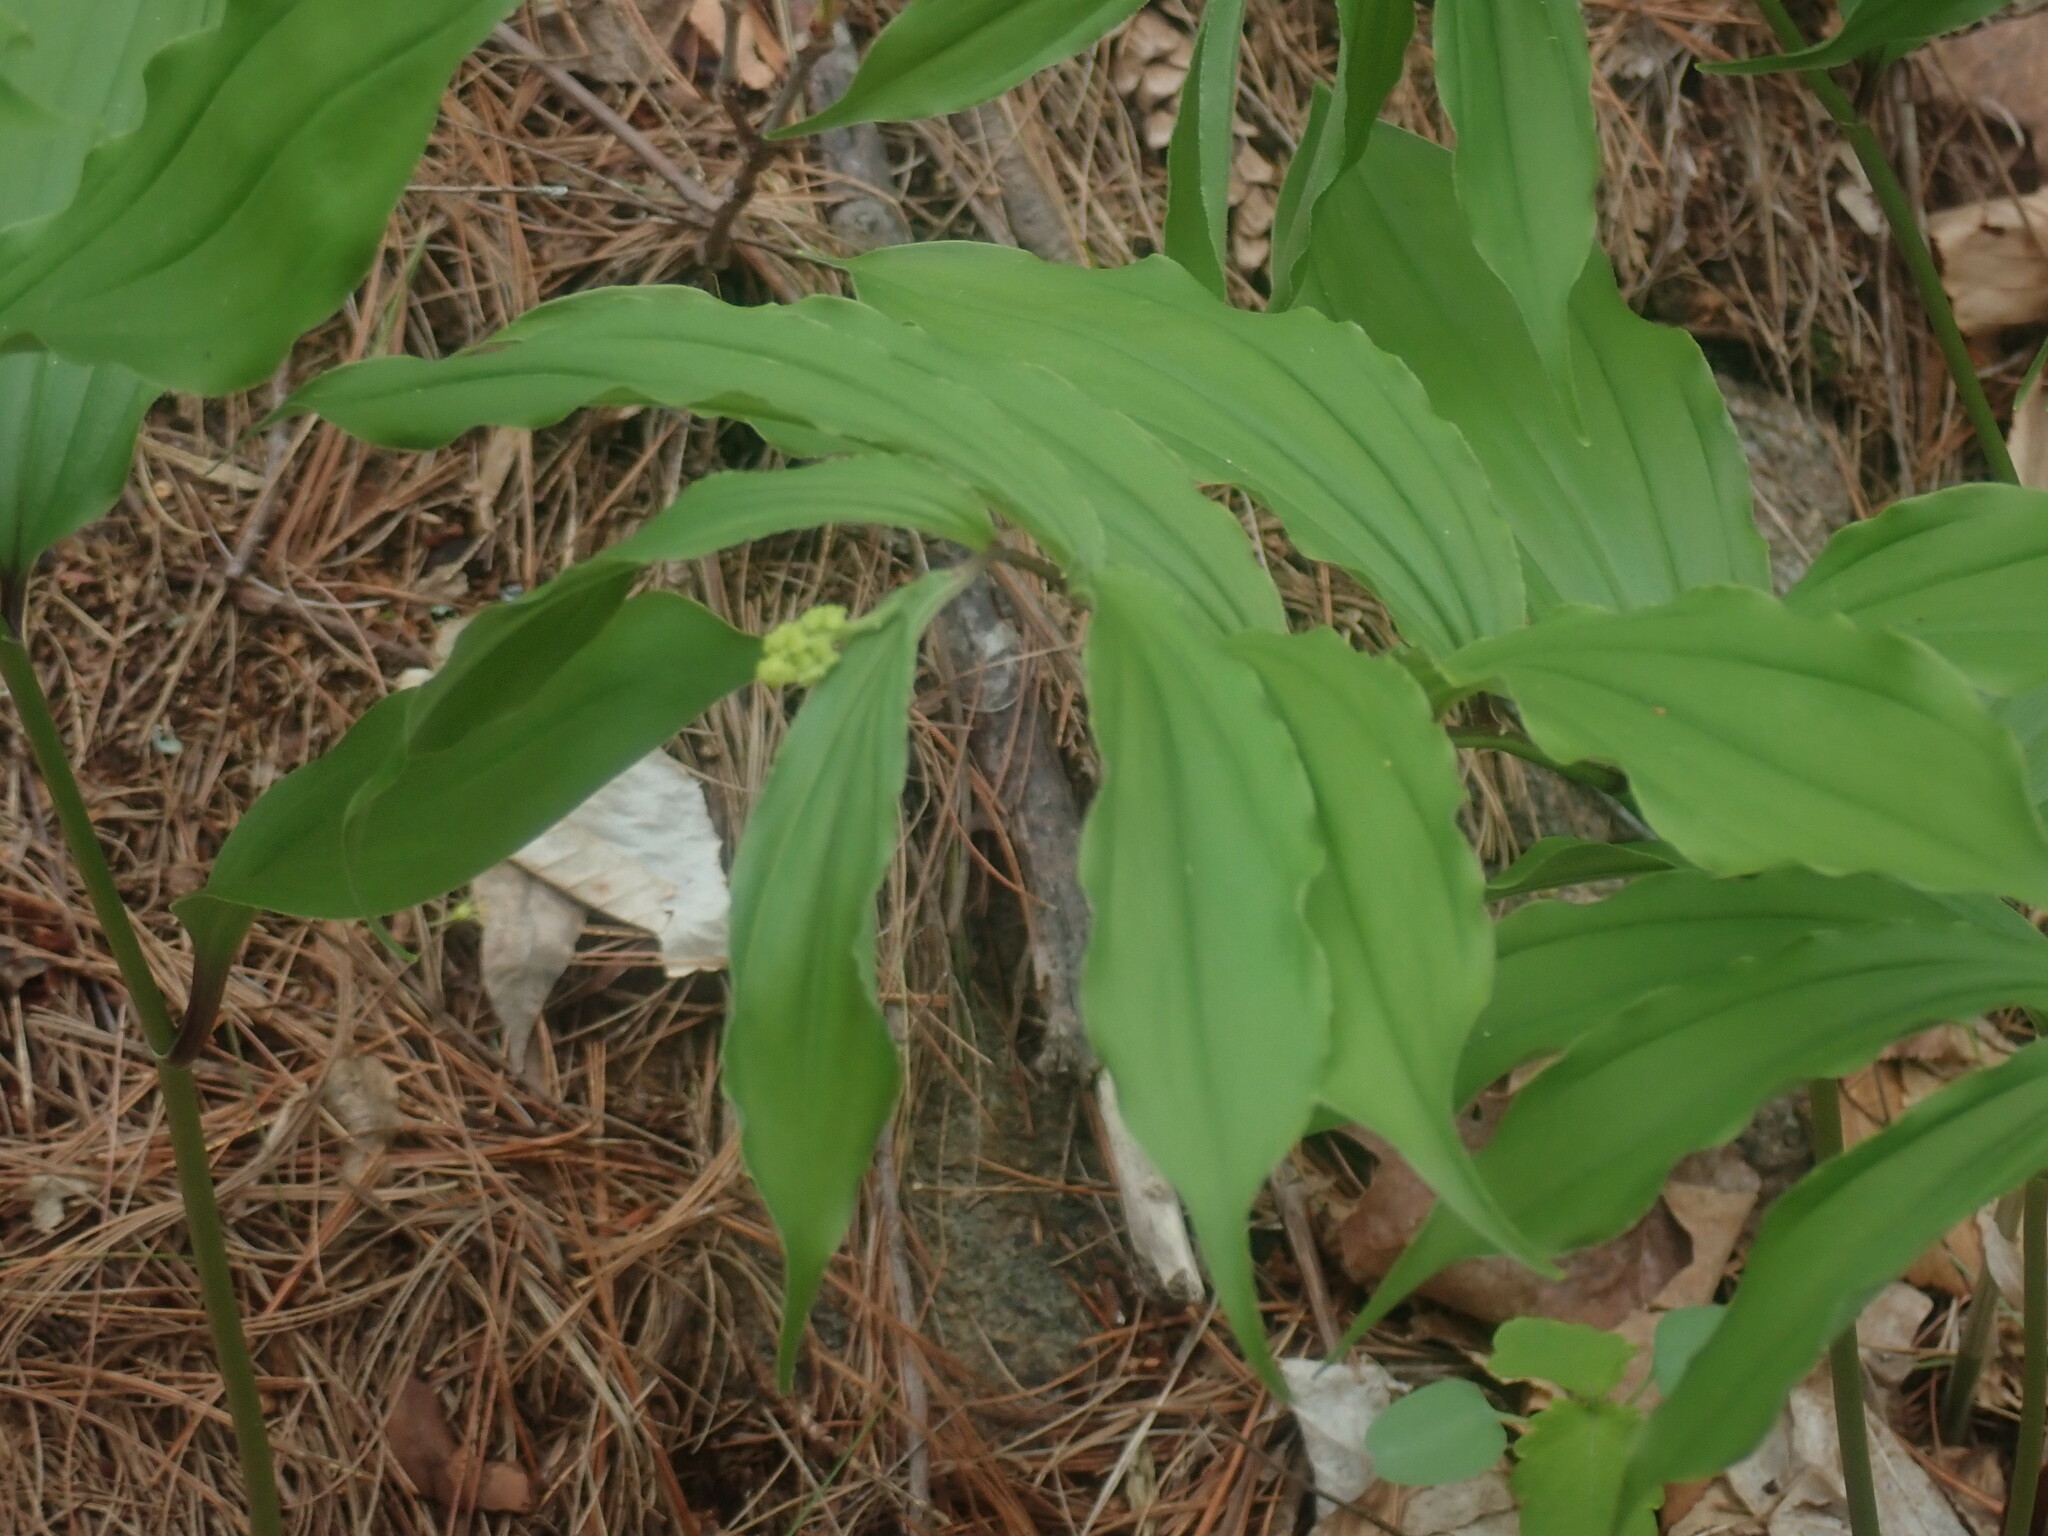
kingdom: Plantae
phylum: Tracheophyta
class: Liliopsida
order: Asparagales
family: Asparagaceae
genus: Maianthemum
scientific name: Maianthemum racemosum
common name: False spikenard
